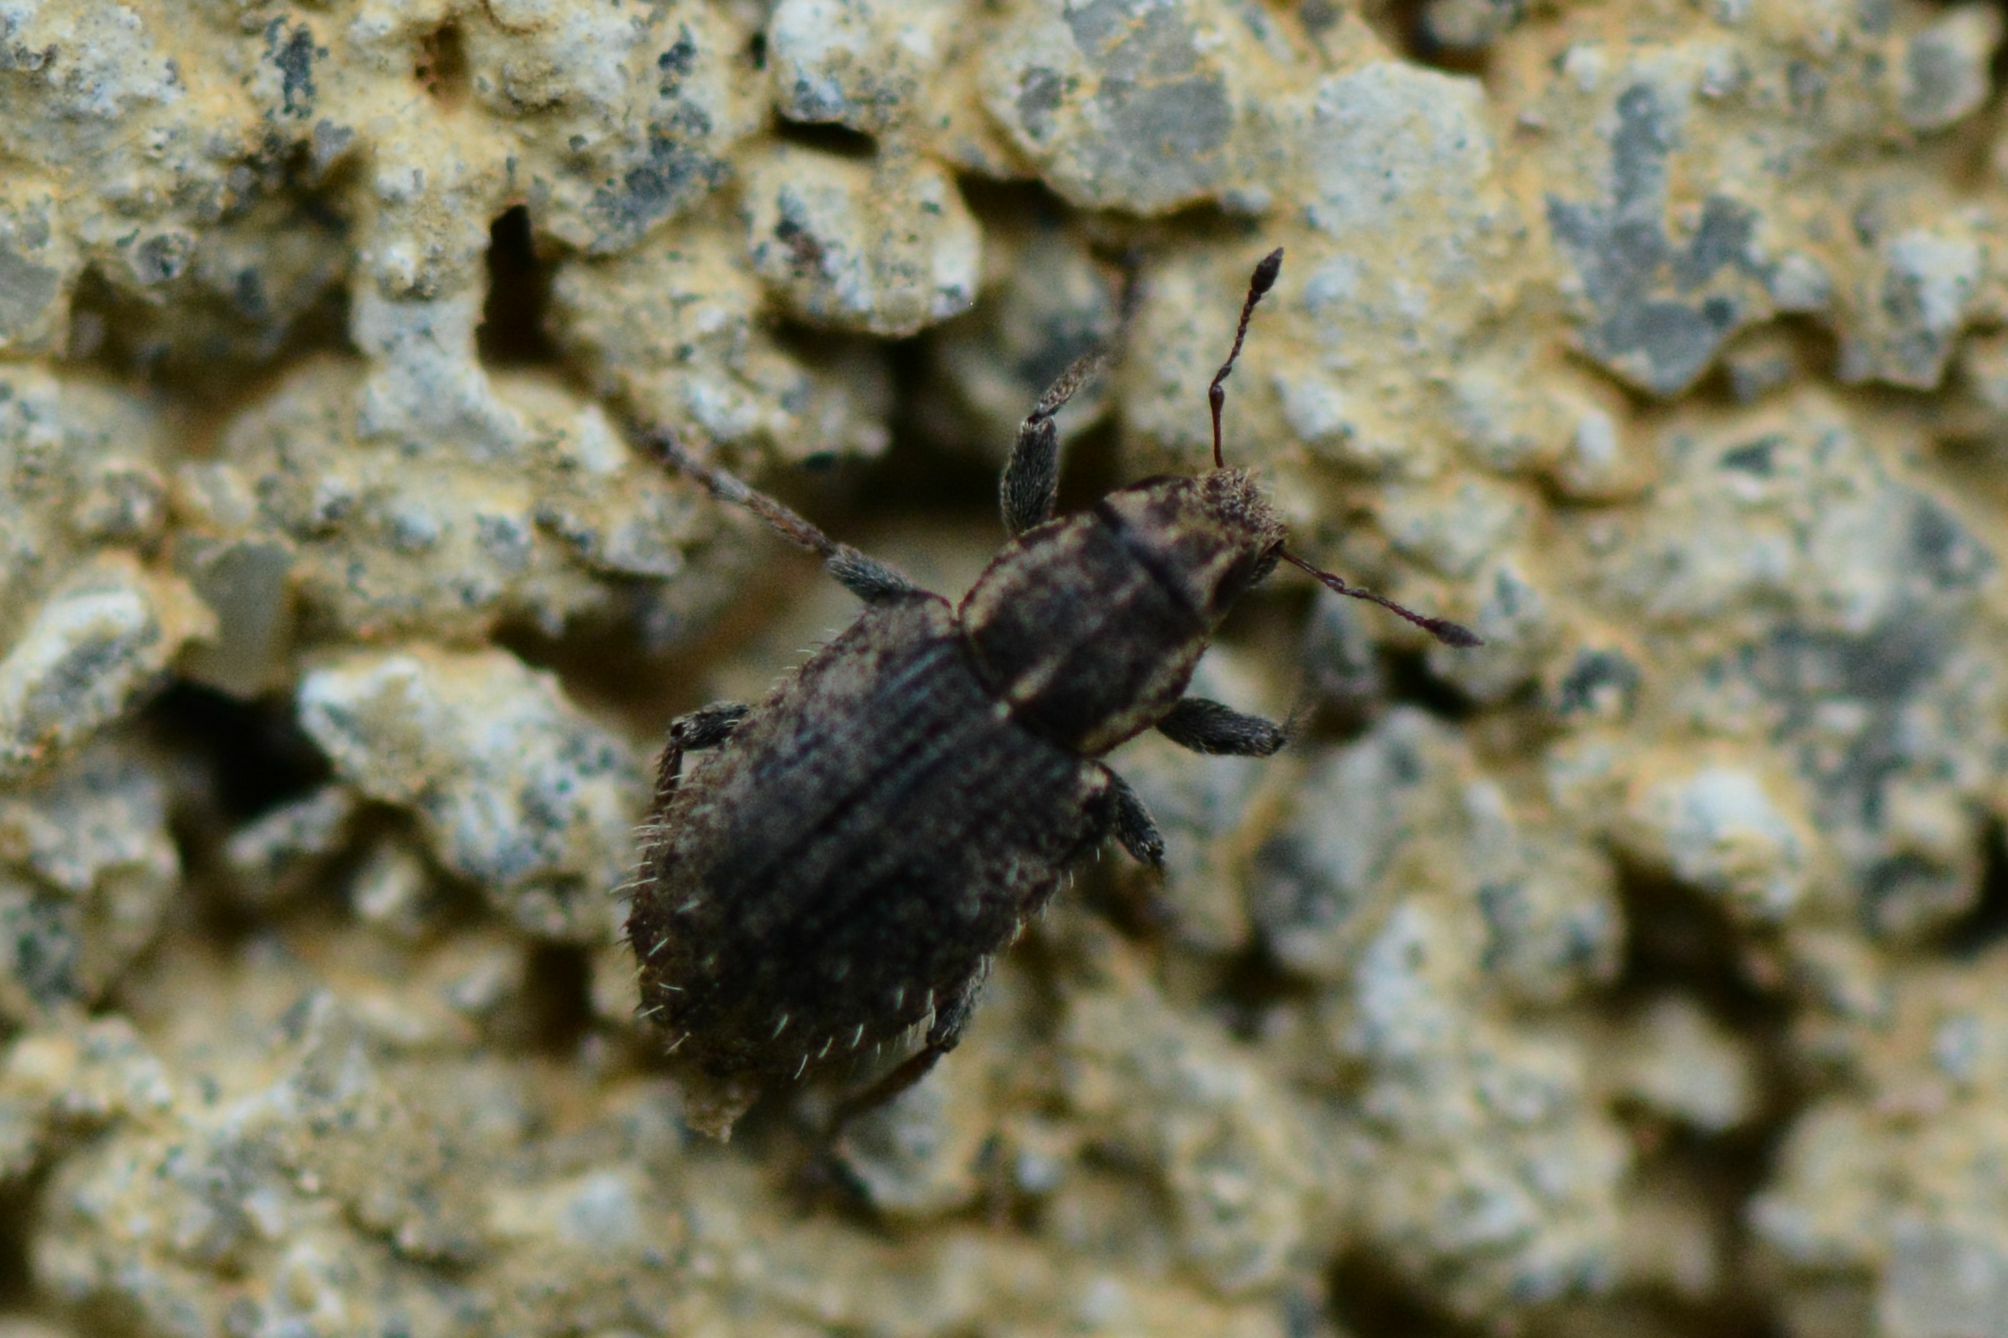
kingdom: Animalia
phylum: Arthropoda
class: Insecta
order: Coleoptera
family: Curculionidae
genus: Sitona
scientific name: Sitona hispidulus
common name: Clover weevil
